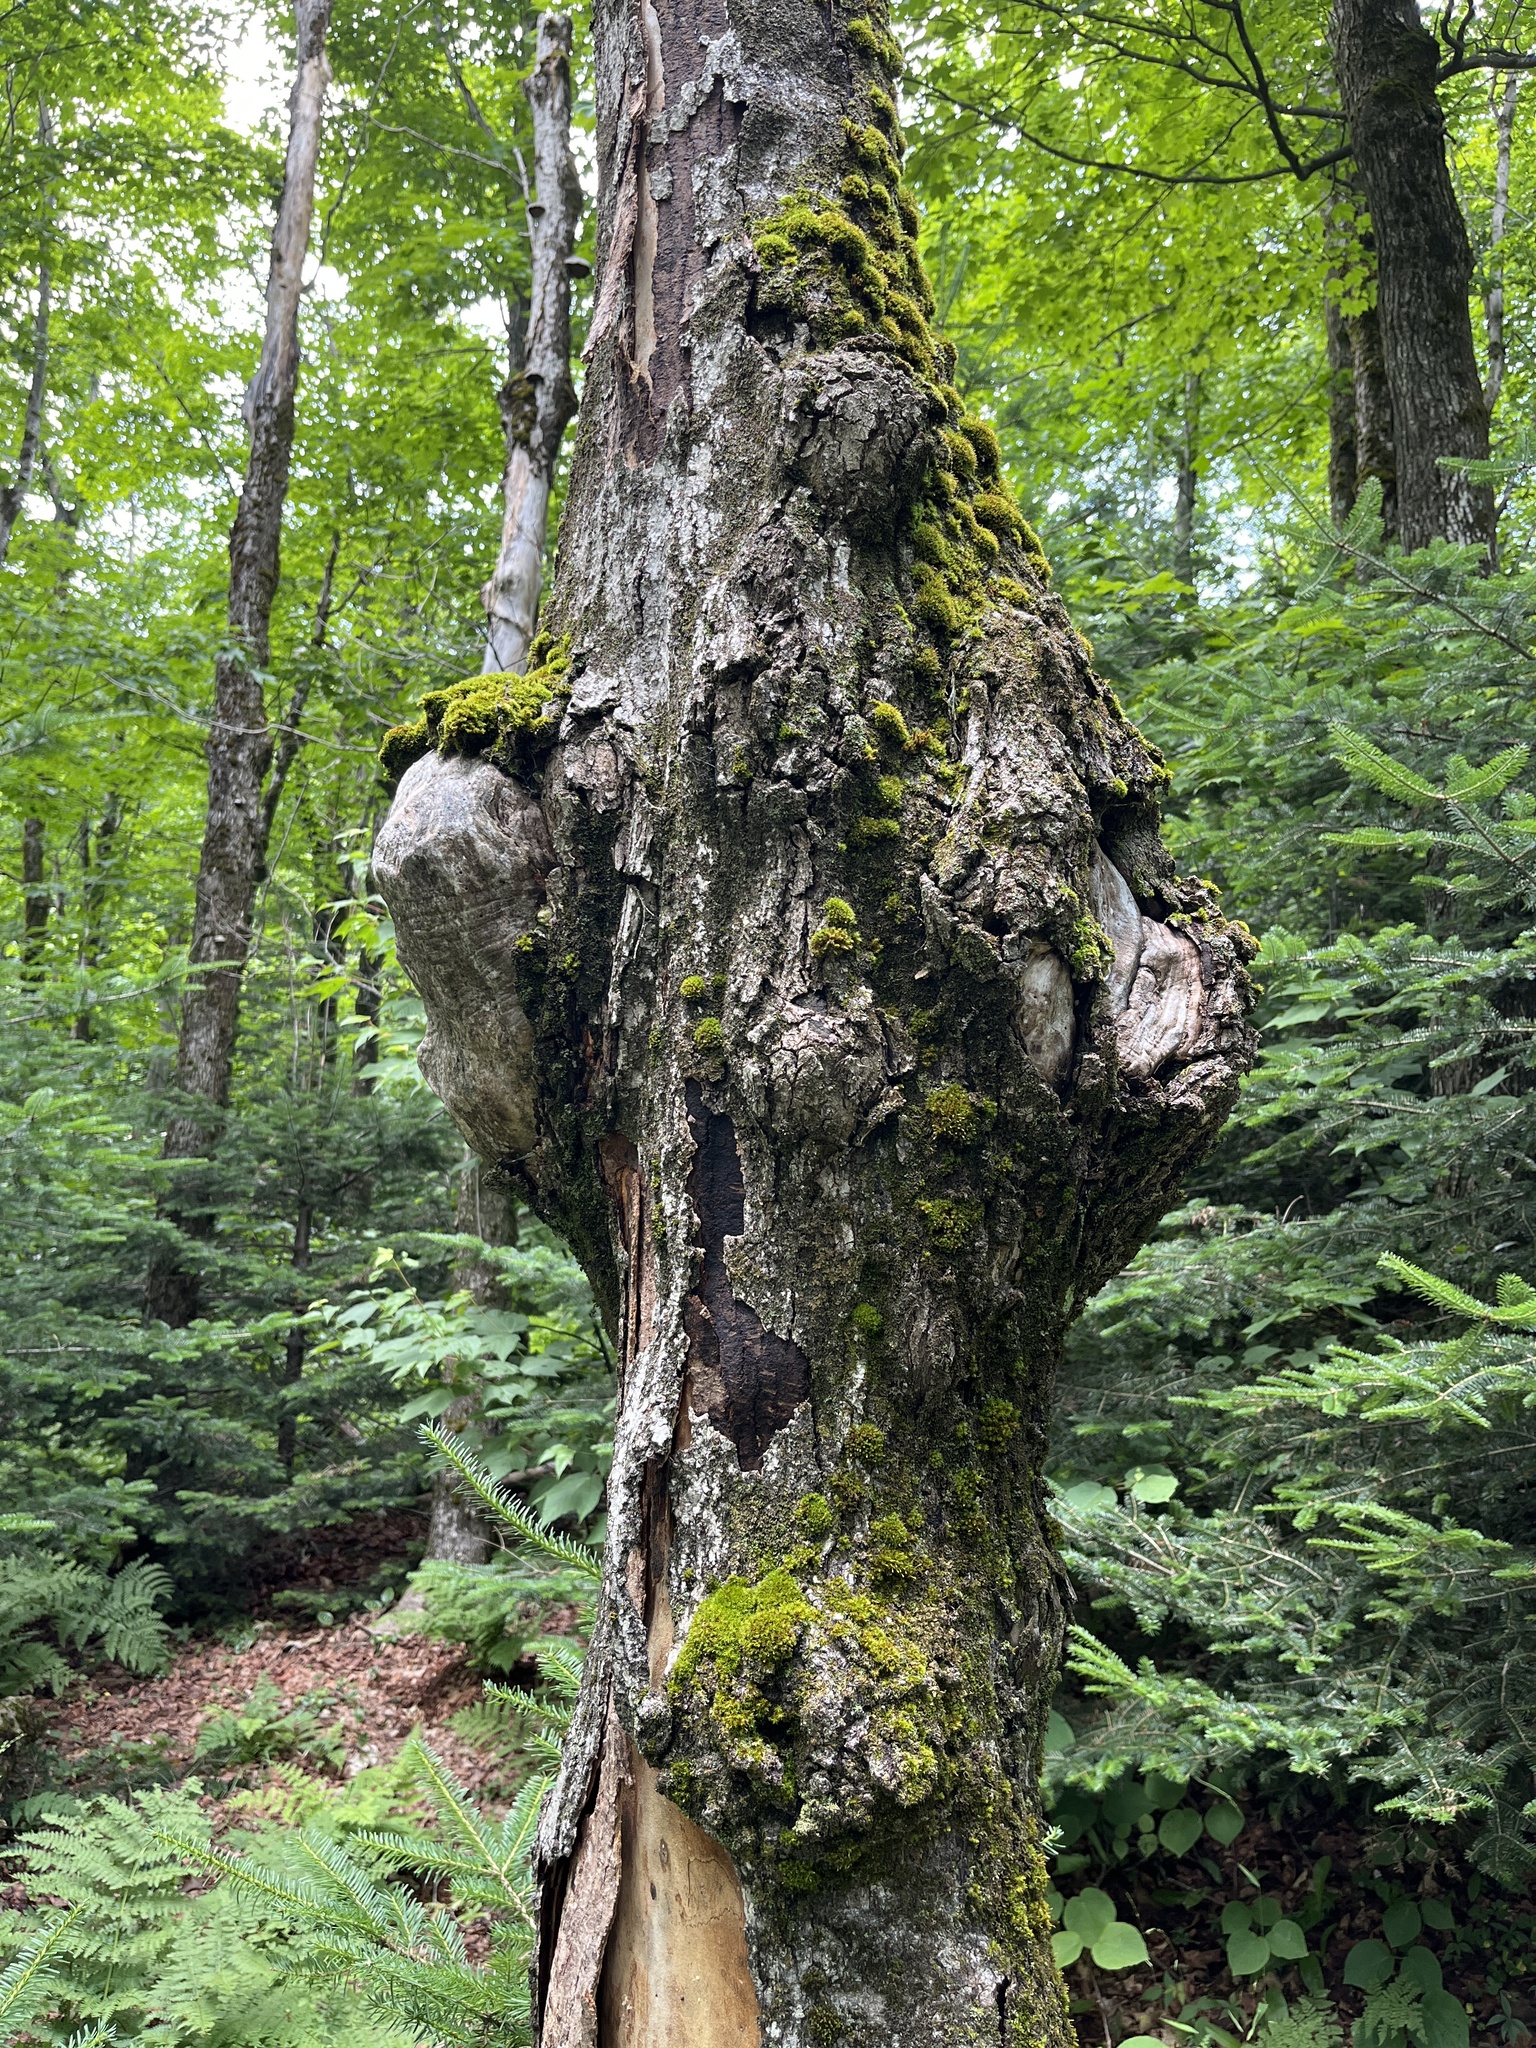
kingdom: Plantae
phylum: Tracheophyta
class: Magnoliopsida
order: Sapindales
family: Sapindaceae
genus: Acer
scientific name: Acer saccharum
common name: Sugar maple
